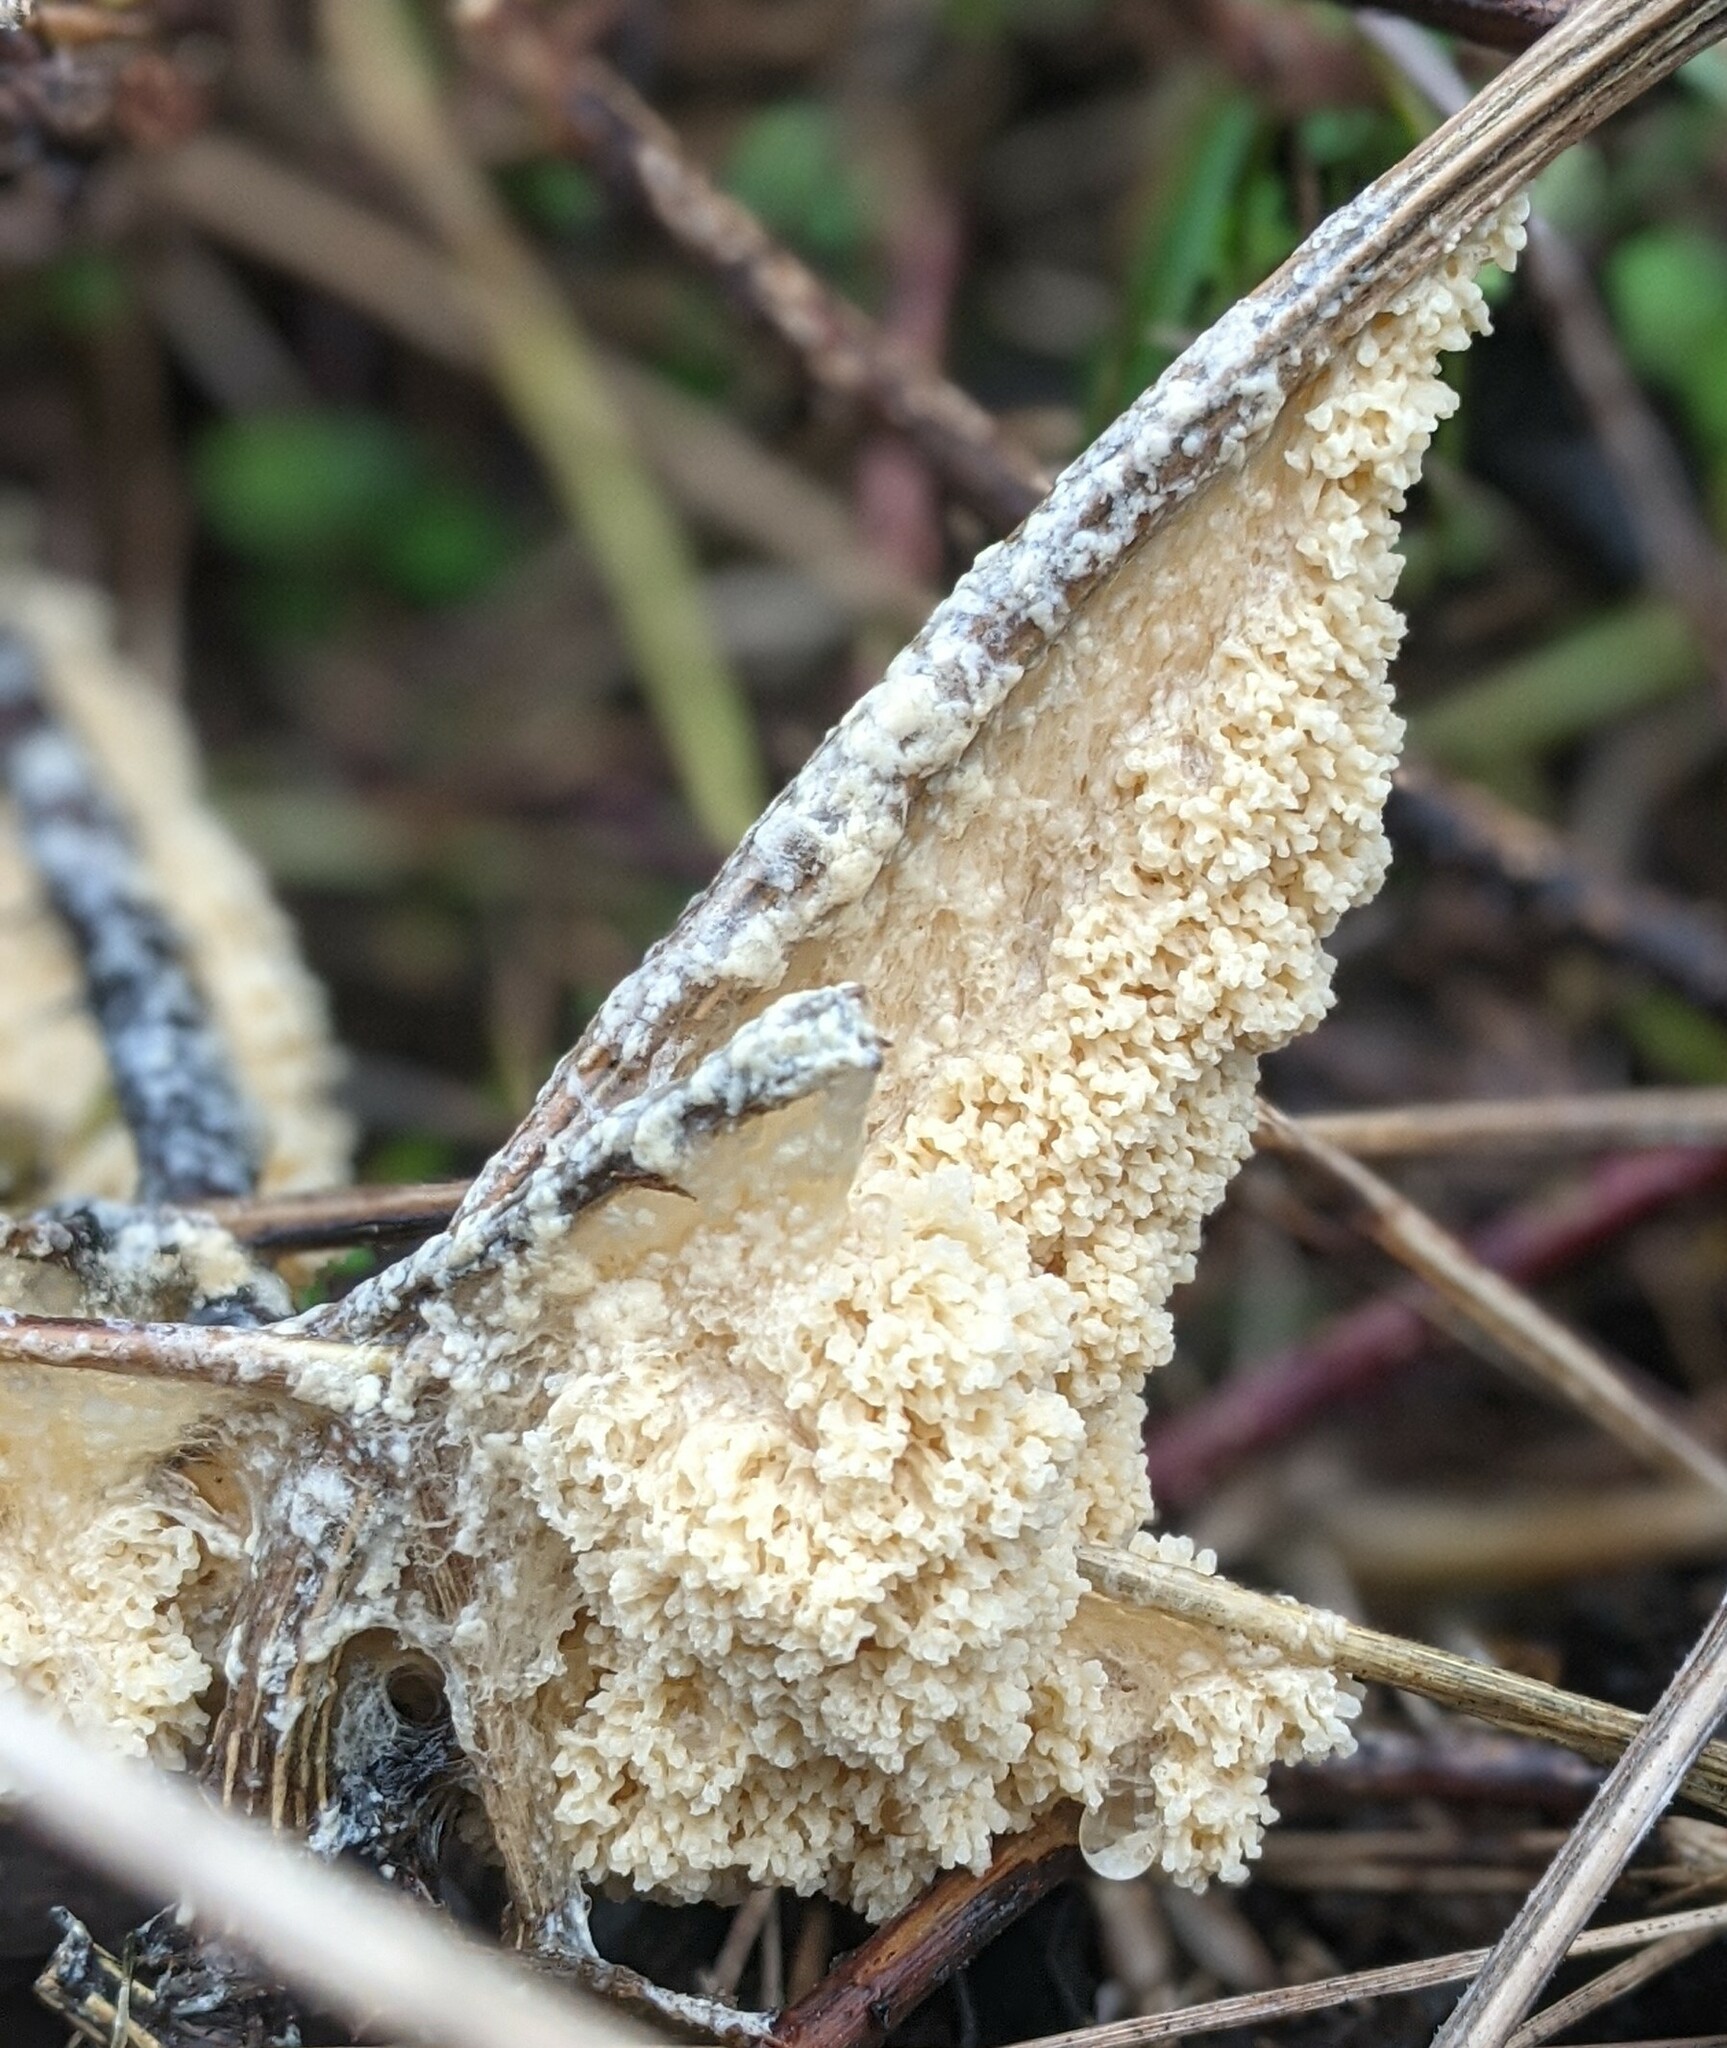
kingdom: Protozoa
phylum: Mycetozoa
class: Myxomycetes
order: Physarales
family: Physaraceae
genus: Didymium
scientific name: Didymium
